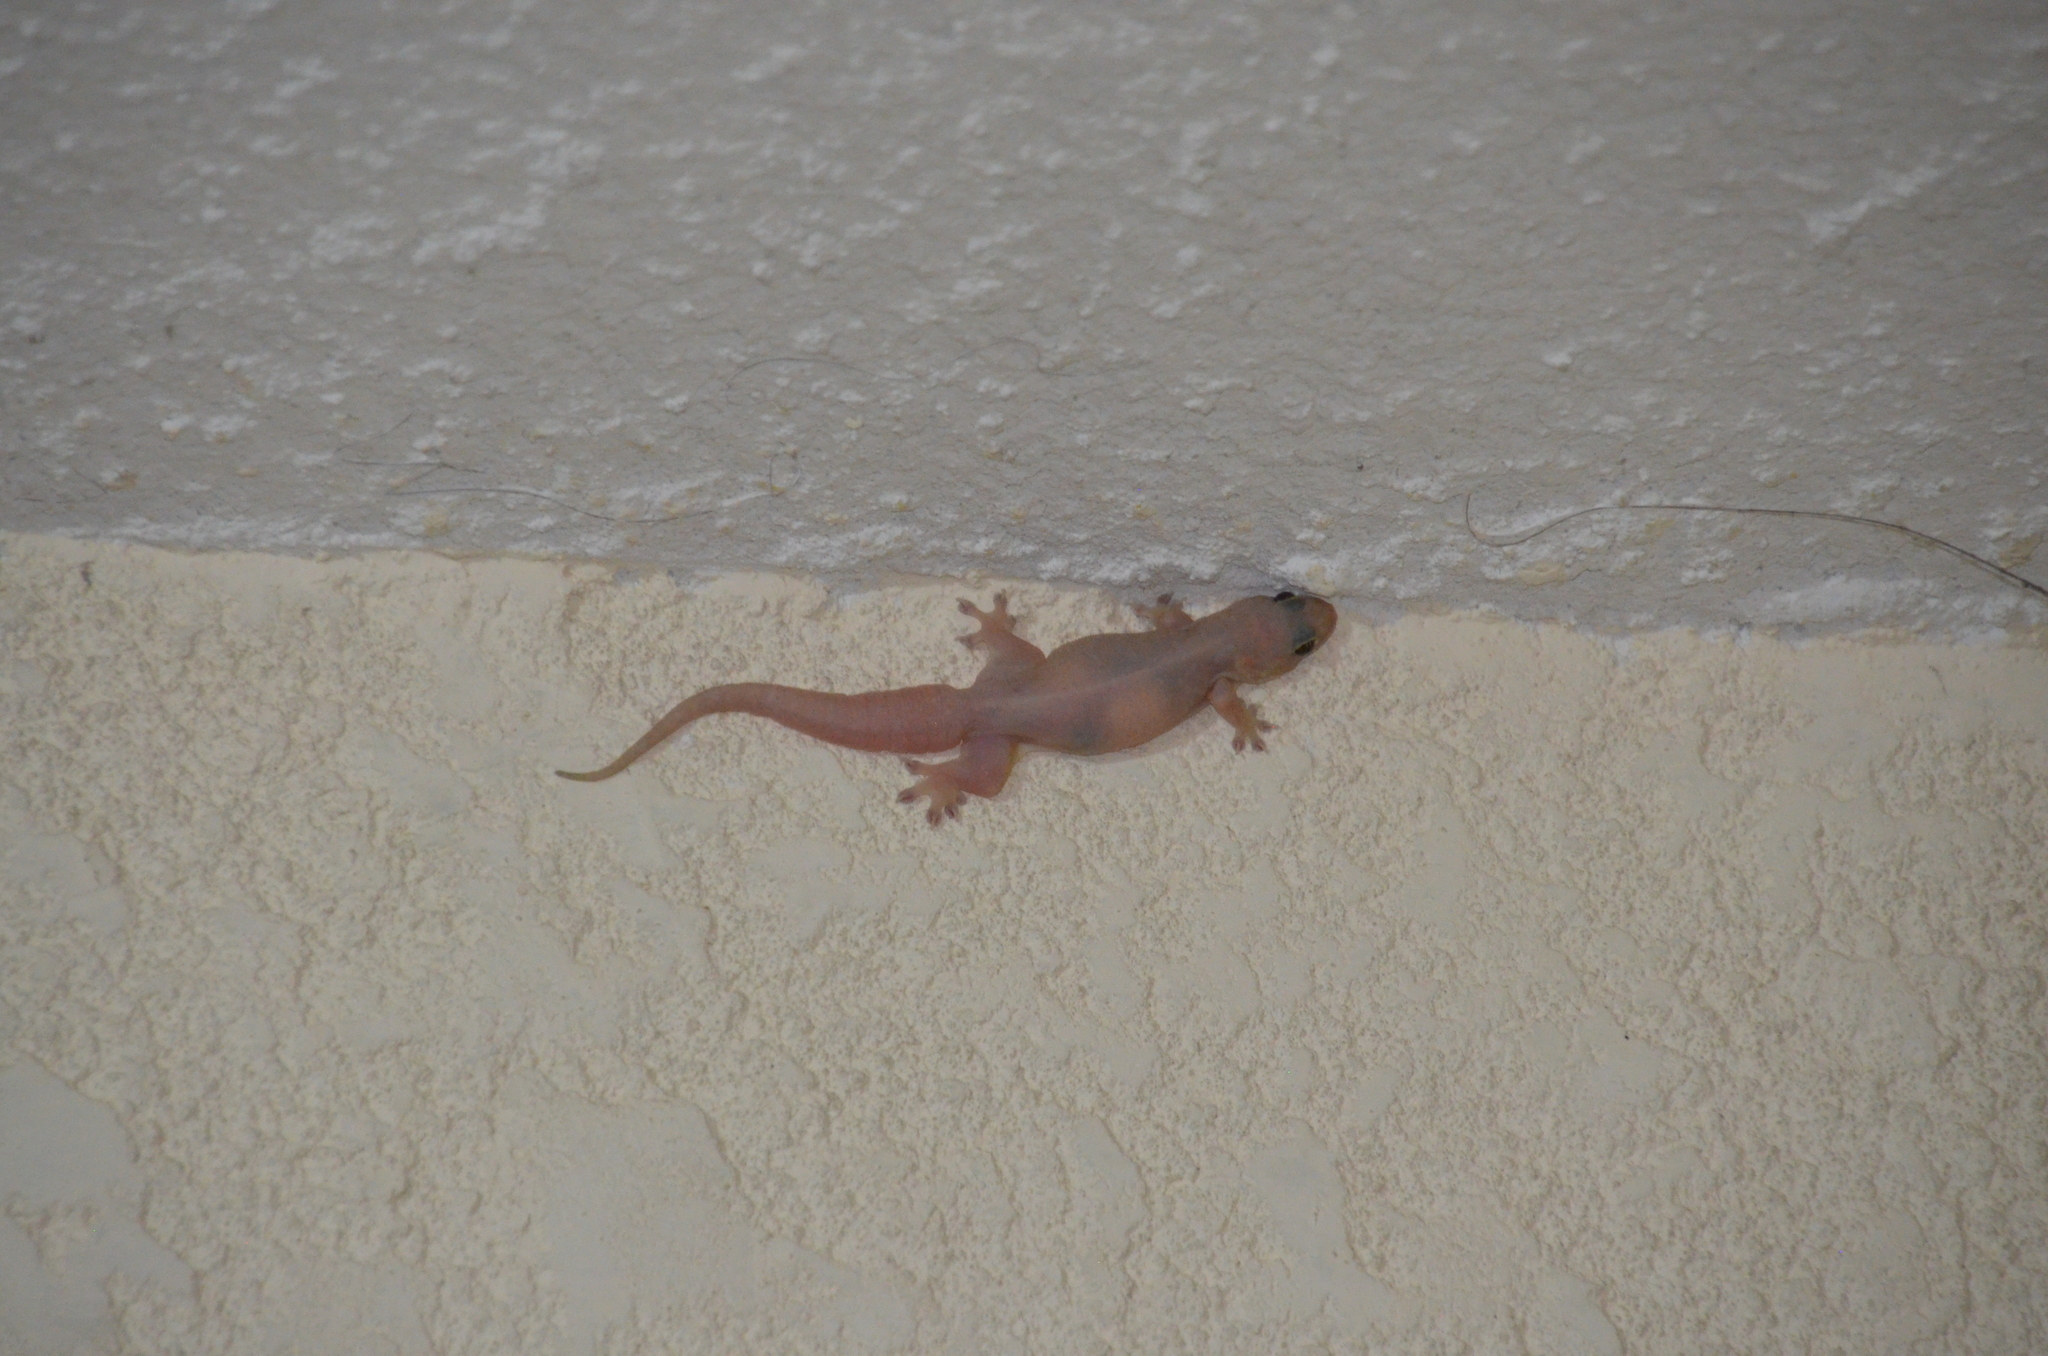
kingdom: Animalia
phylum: Chordata
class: Squamata
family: Gekkonidae
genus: Gehyra
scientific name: Gehyra mutilata
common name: Stump-toed gecko
